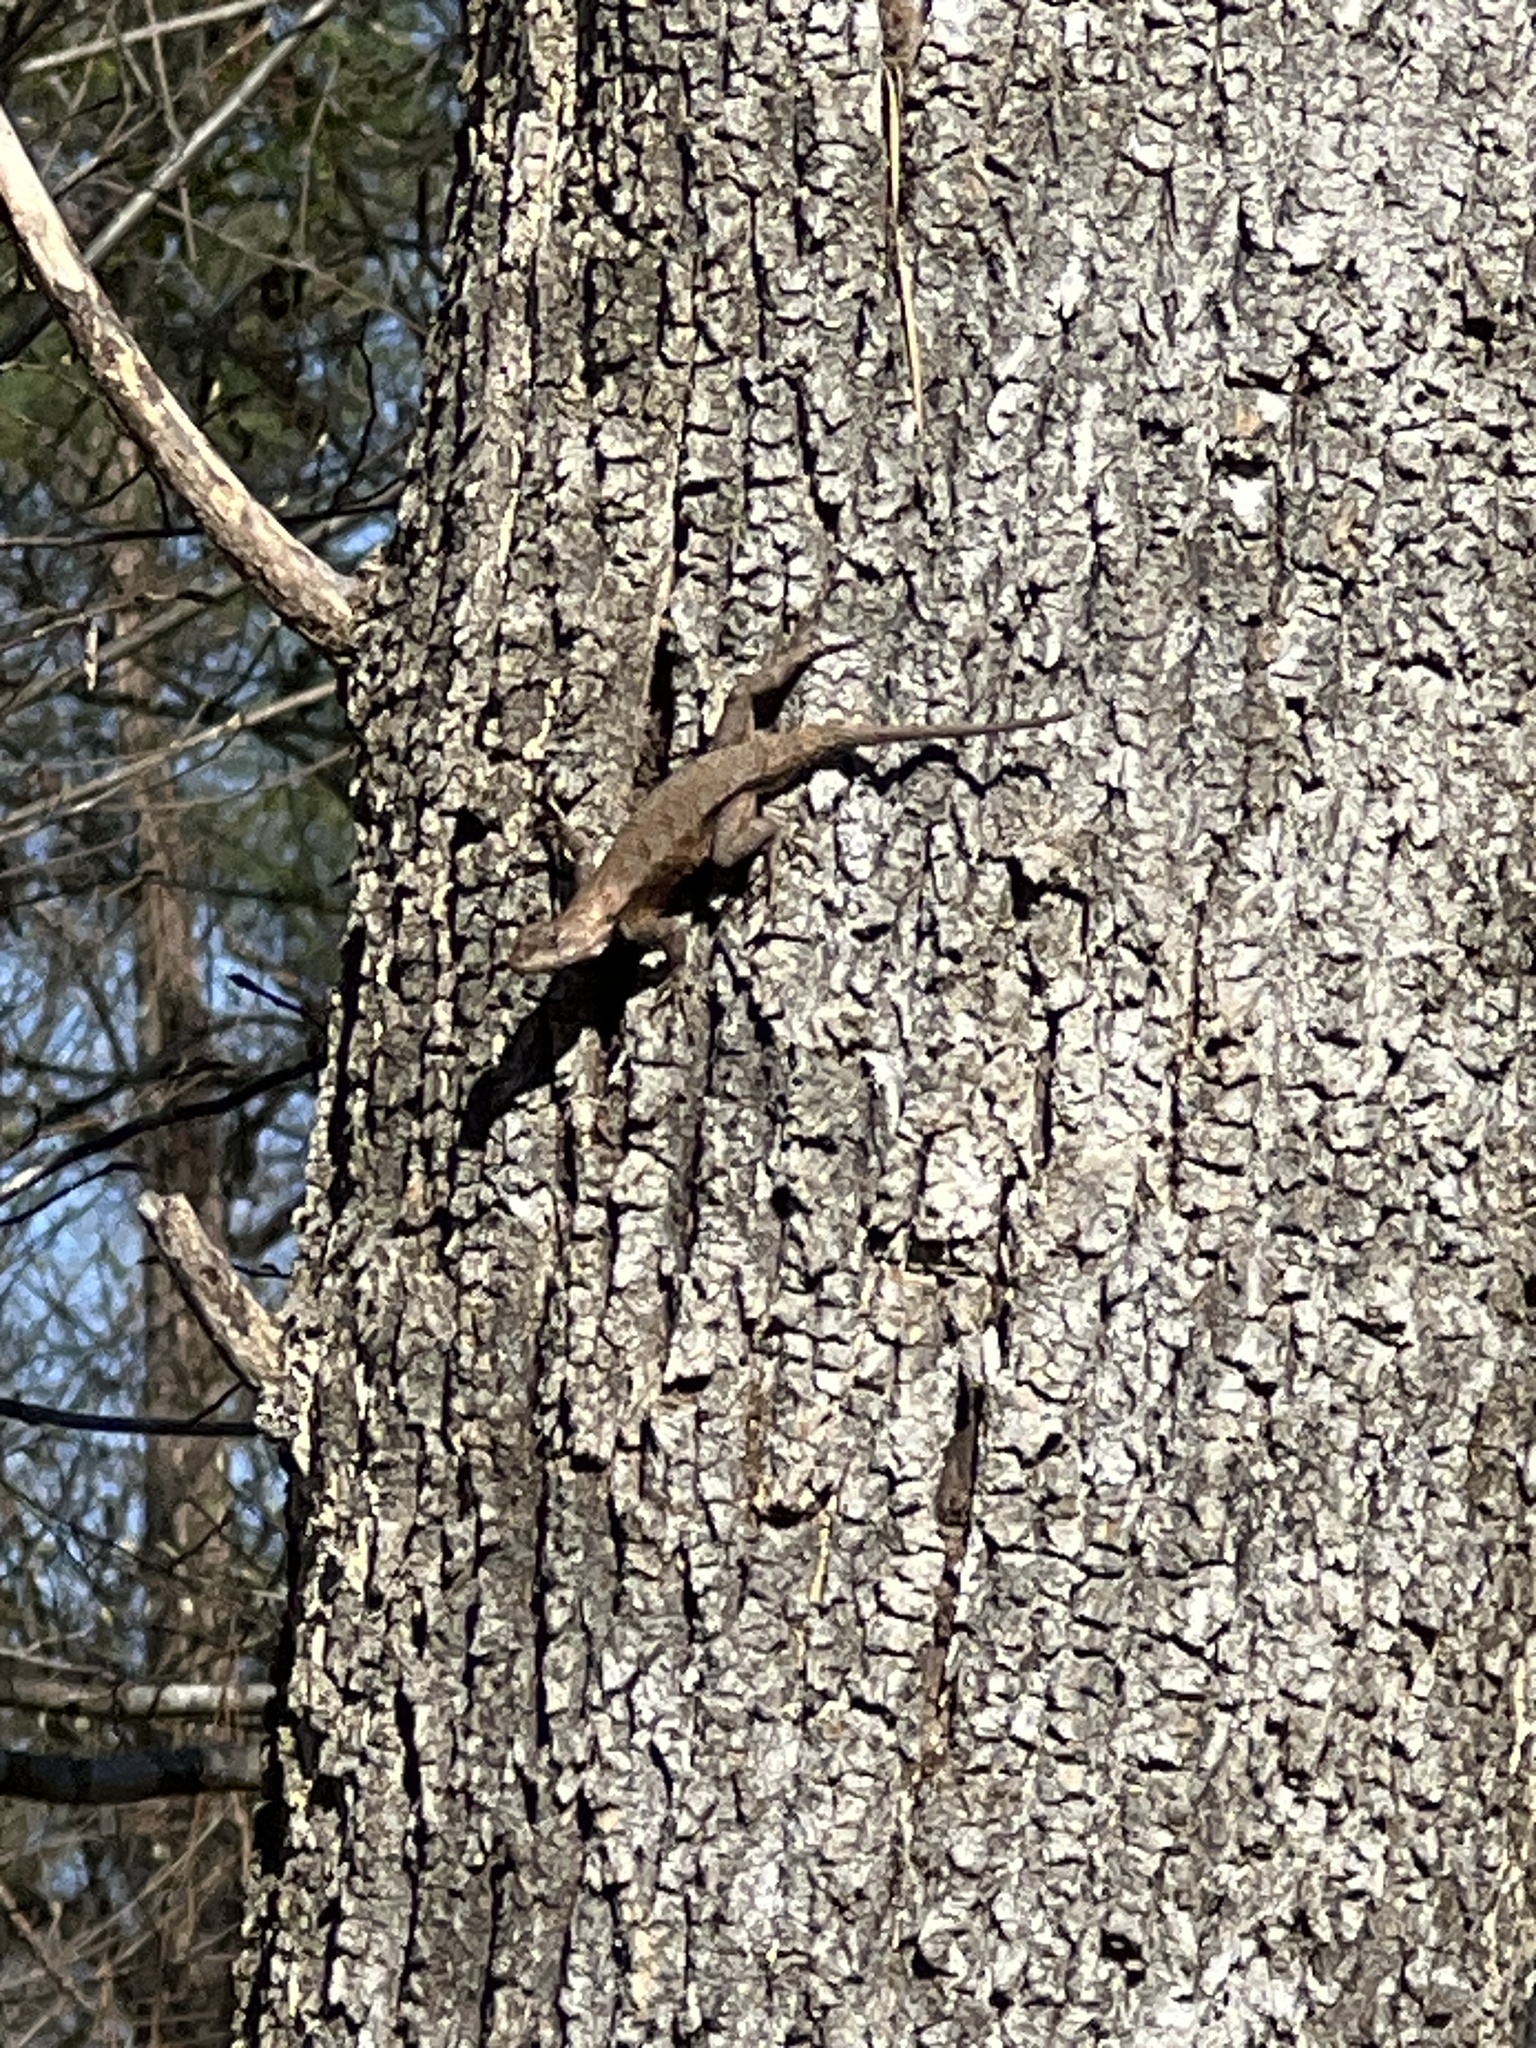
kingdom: Animalia
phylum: Chordata
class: Squamata
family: Phrynosomatidae
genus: Sceloporus
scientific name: Sceloporus undulatus
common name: Eastern fence lizard
